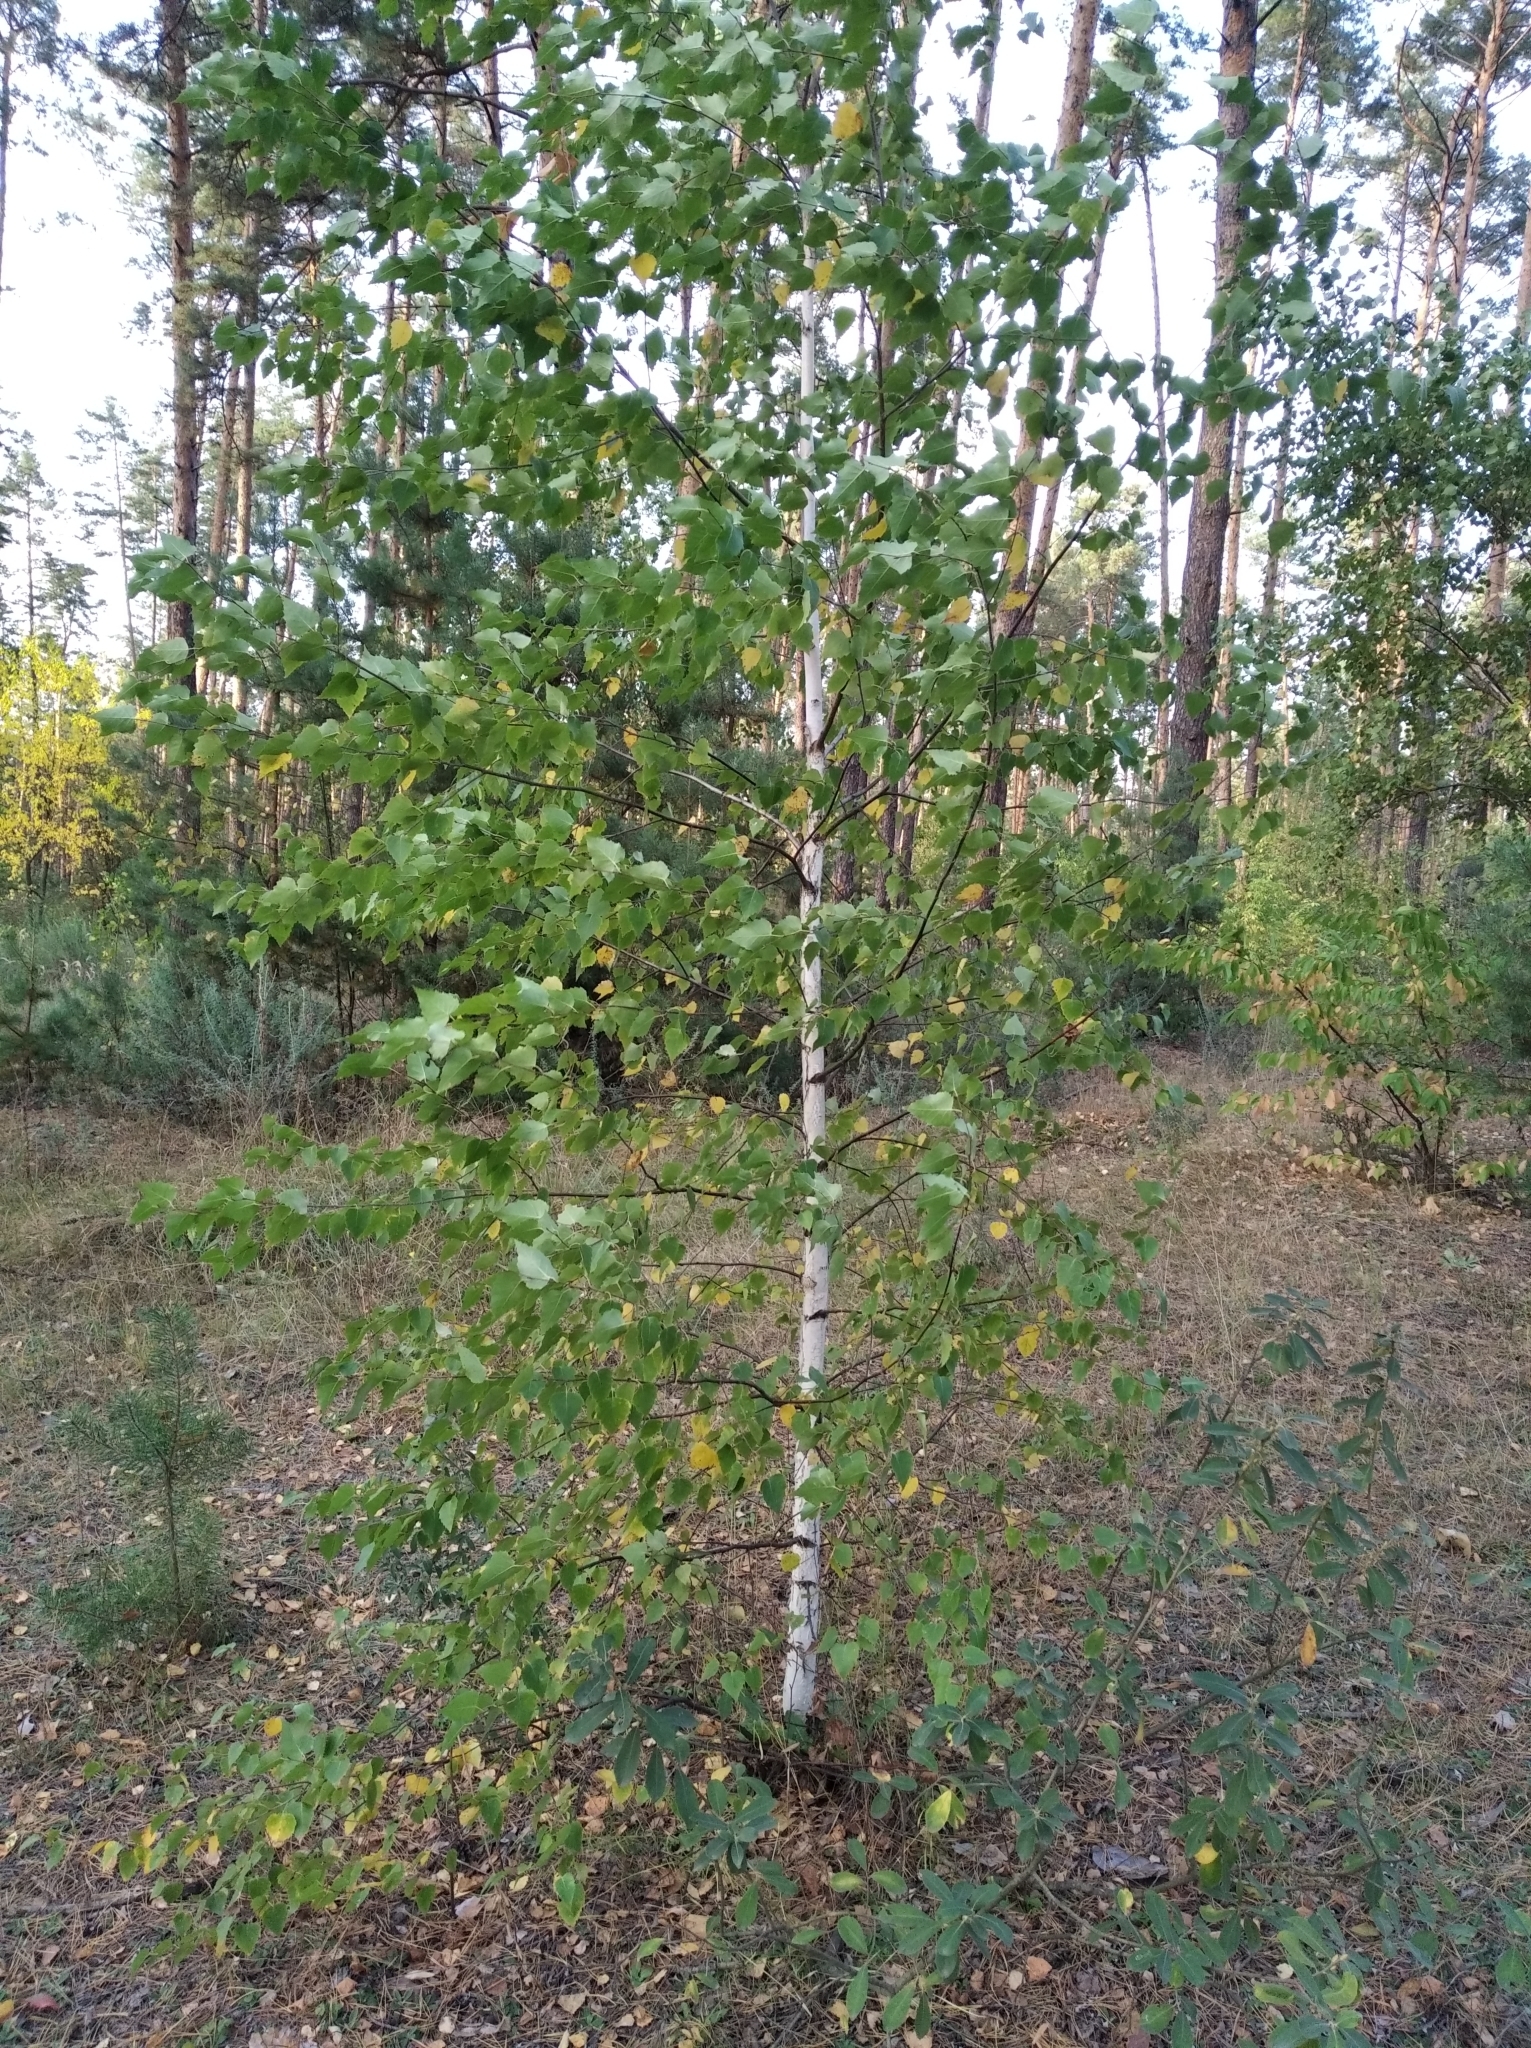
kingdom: Plantae
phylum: Tracheophyta
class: Magnoliopsida
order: Fagales
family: Betulaceae
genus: Betula
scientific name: Betula pendula
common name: Silver birch
